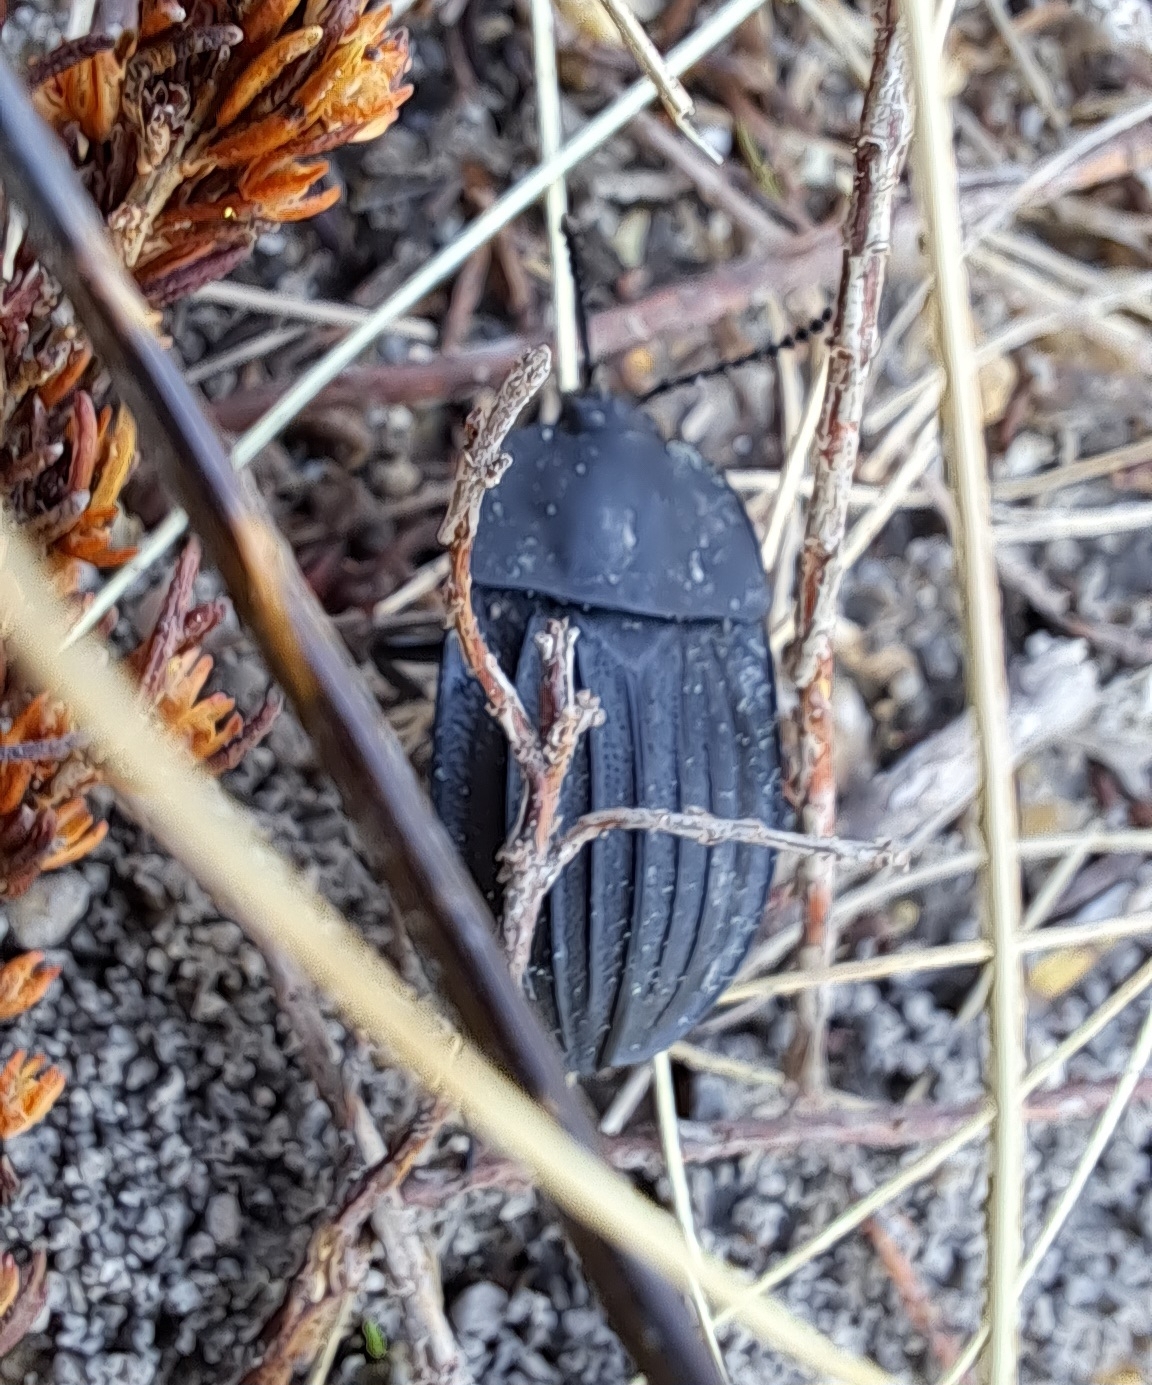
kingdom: Animalia
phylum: Arthropoda
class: Insecta
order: Coleoptera
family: Staphylinidae
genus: Silpha
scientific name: Silpha capicola
